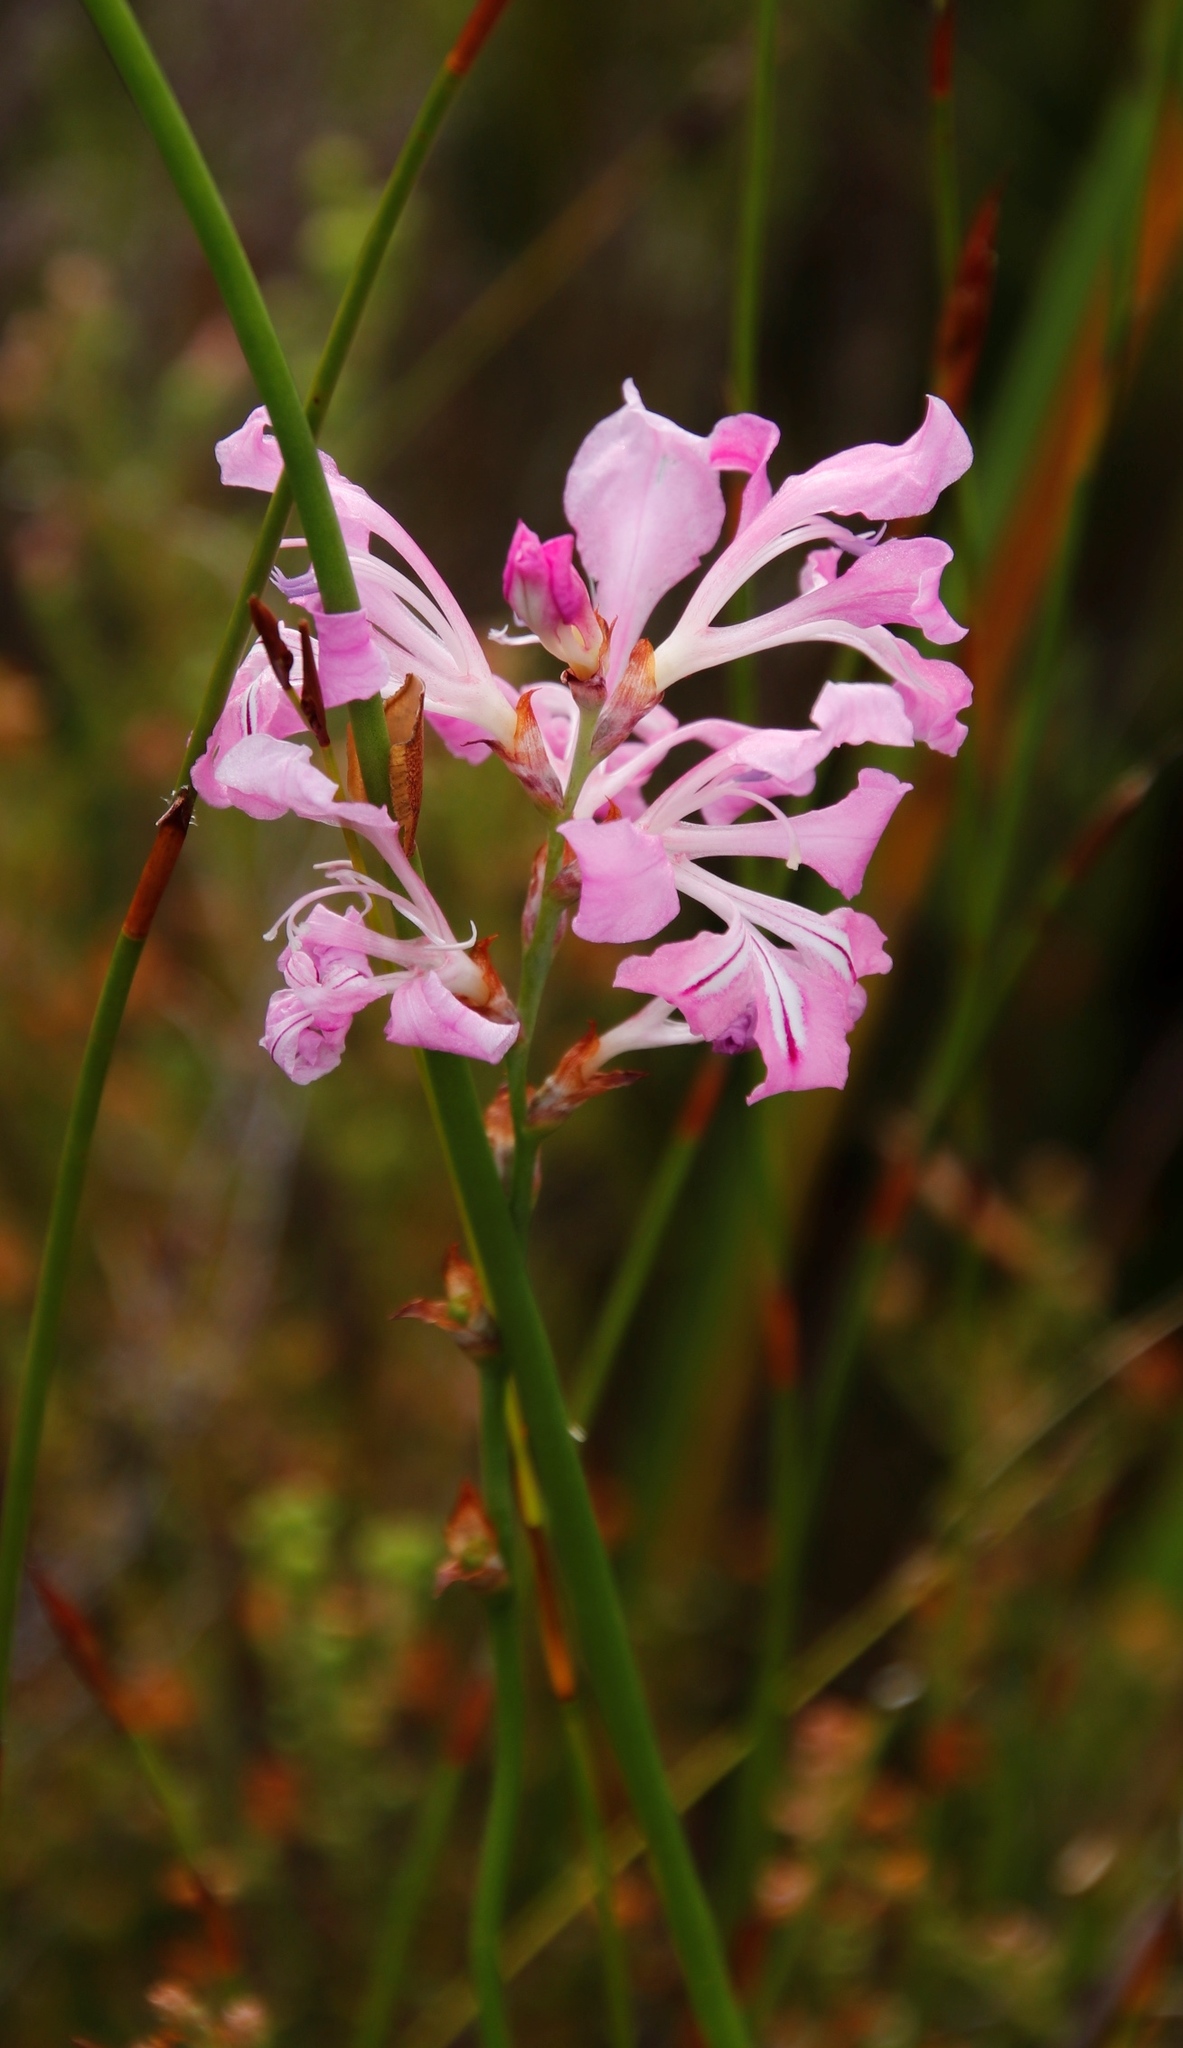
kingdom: Plantae
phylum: Tracheophyta
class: Liliopsida
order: Asparagales
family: Iridaceae
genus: Tritoniopsis
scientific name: Tritoniopsis lata
